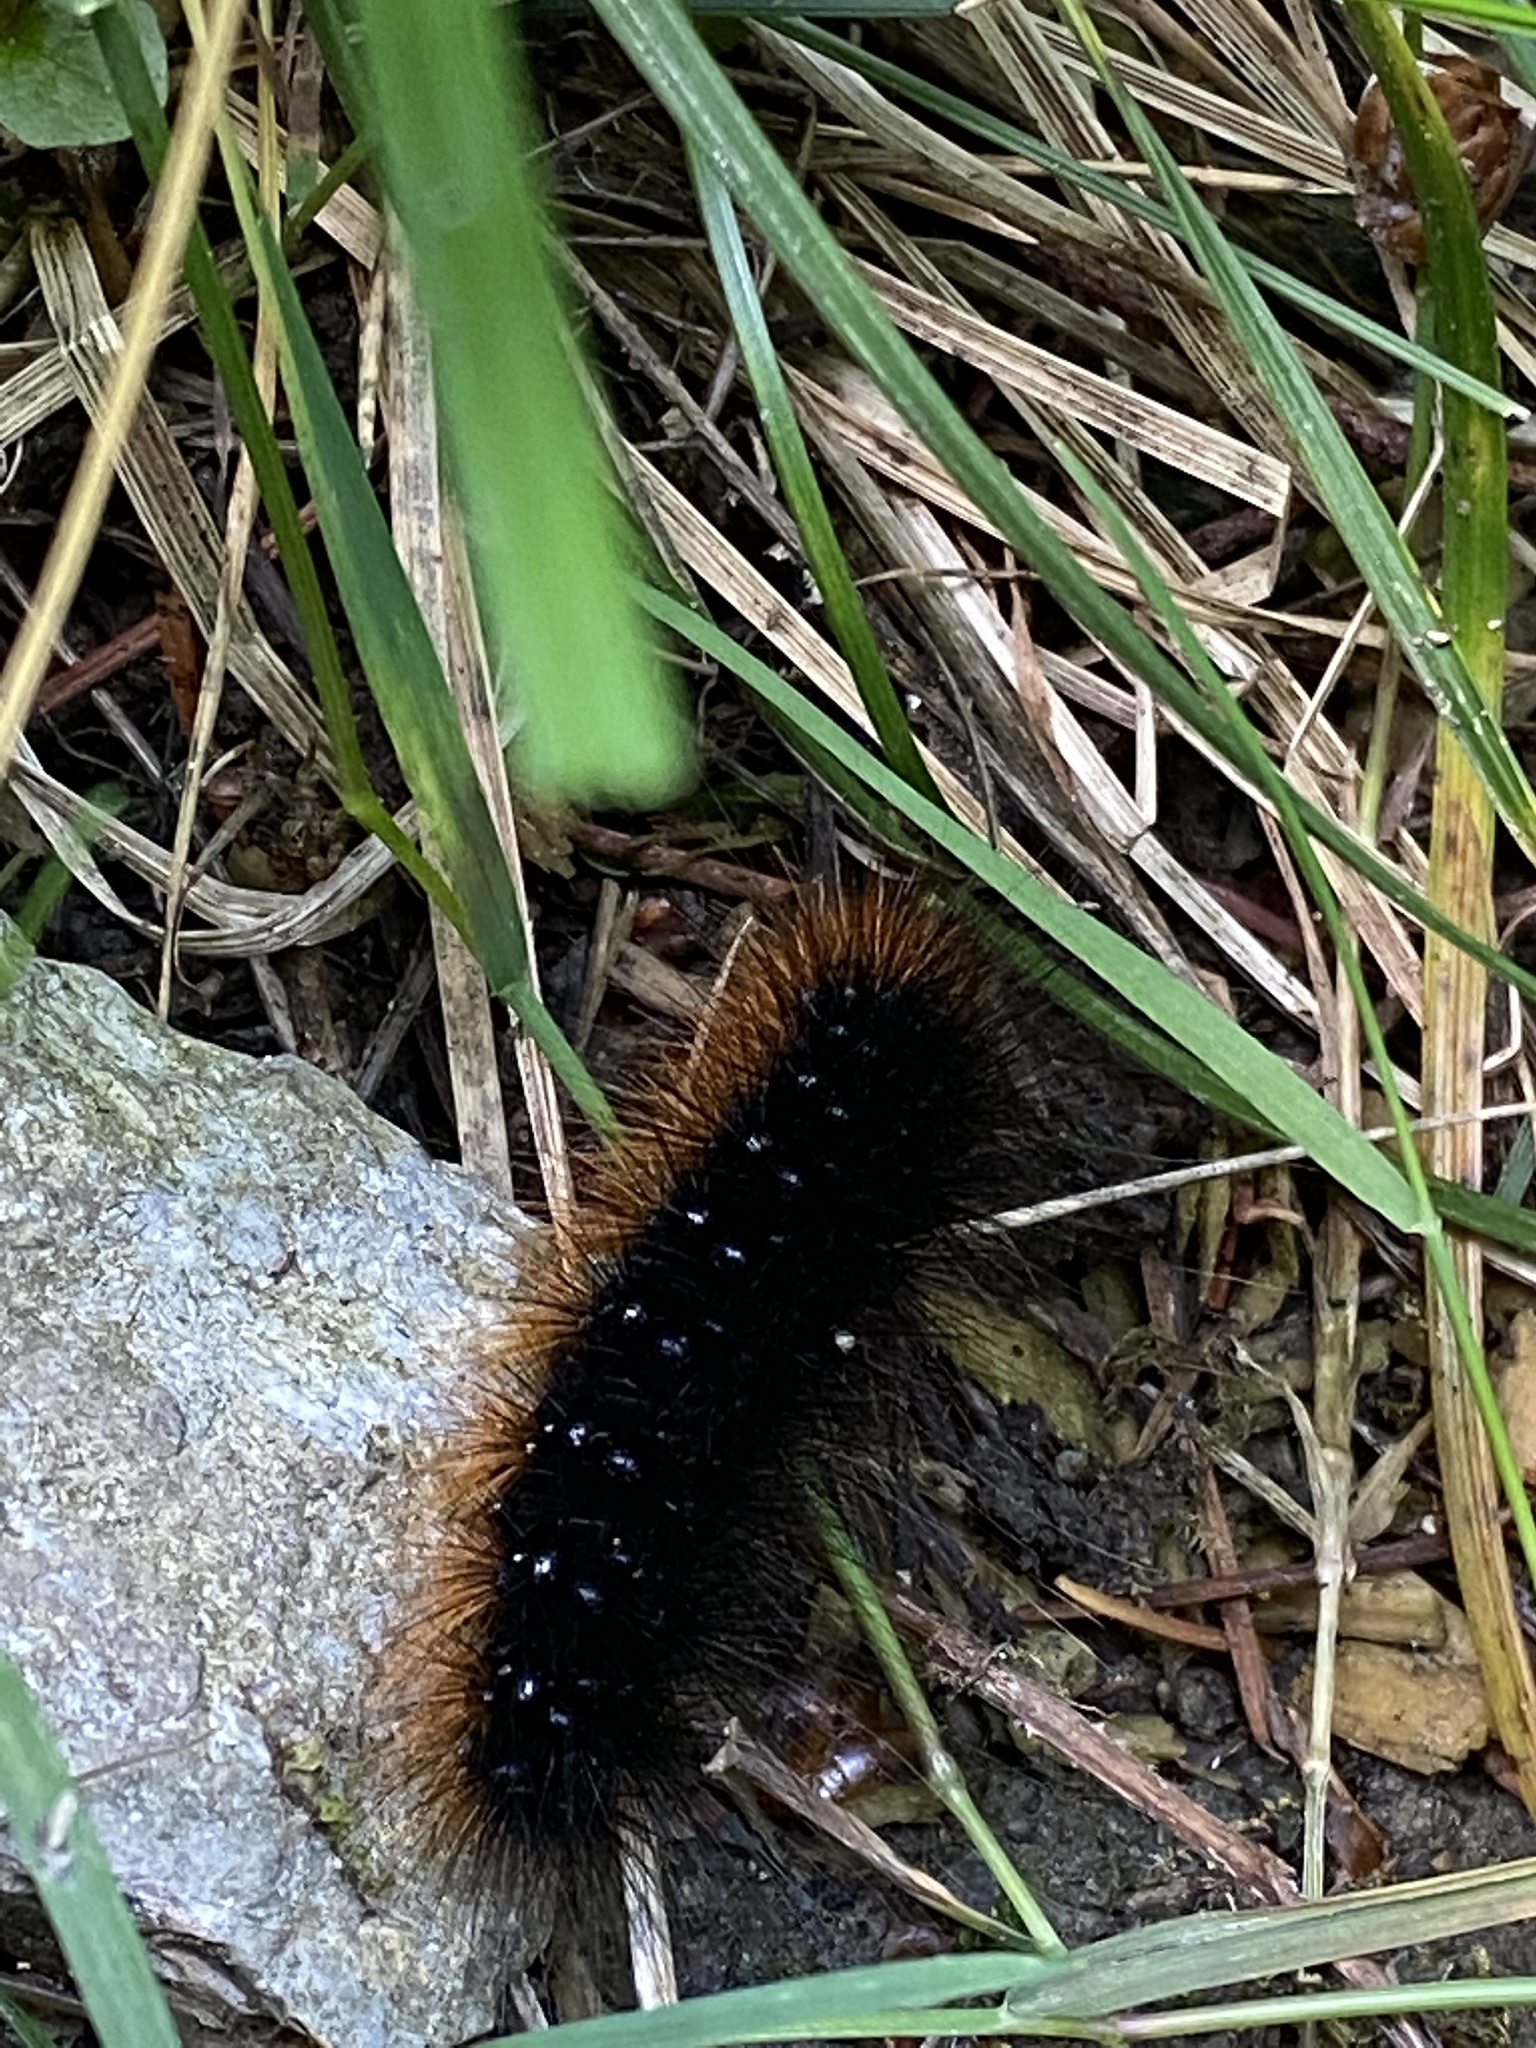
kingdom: Animalia
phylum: Arthropoda
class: Insecta
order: Lepidoptera
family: Erebidae
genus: Arctia
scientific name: Arctia caja
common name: Garden tiger
